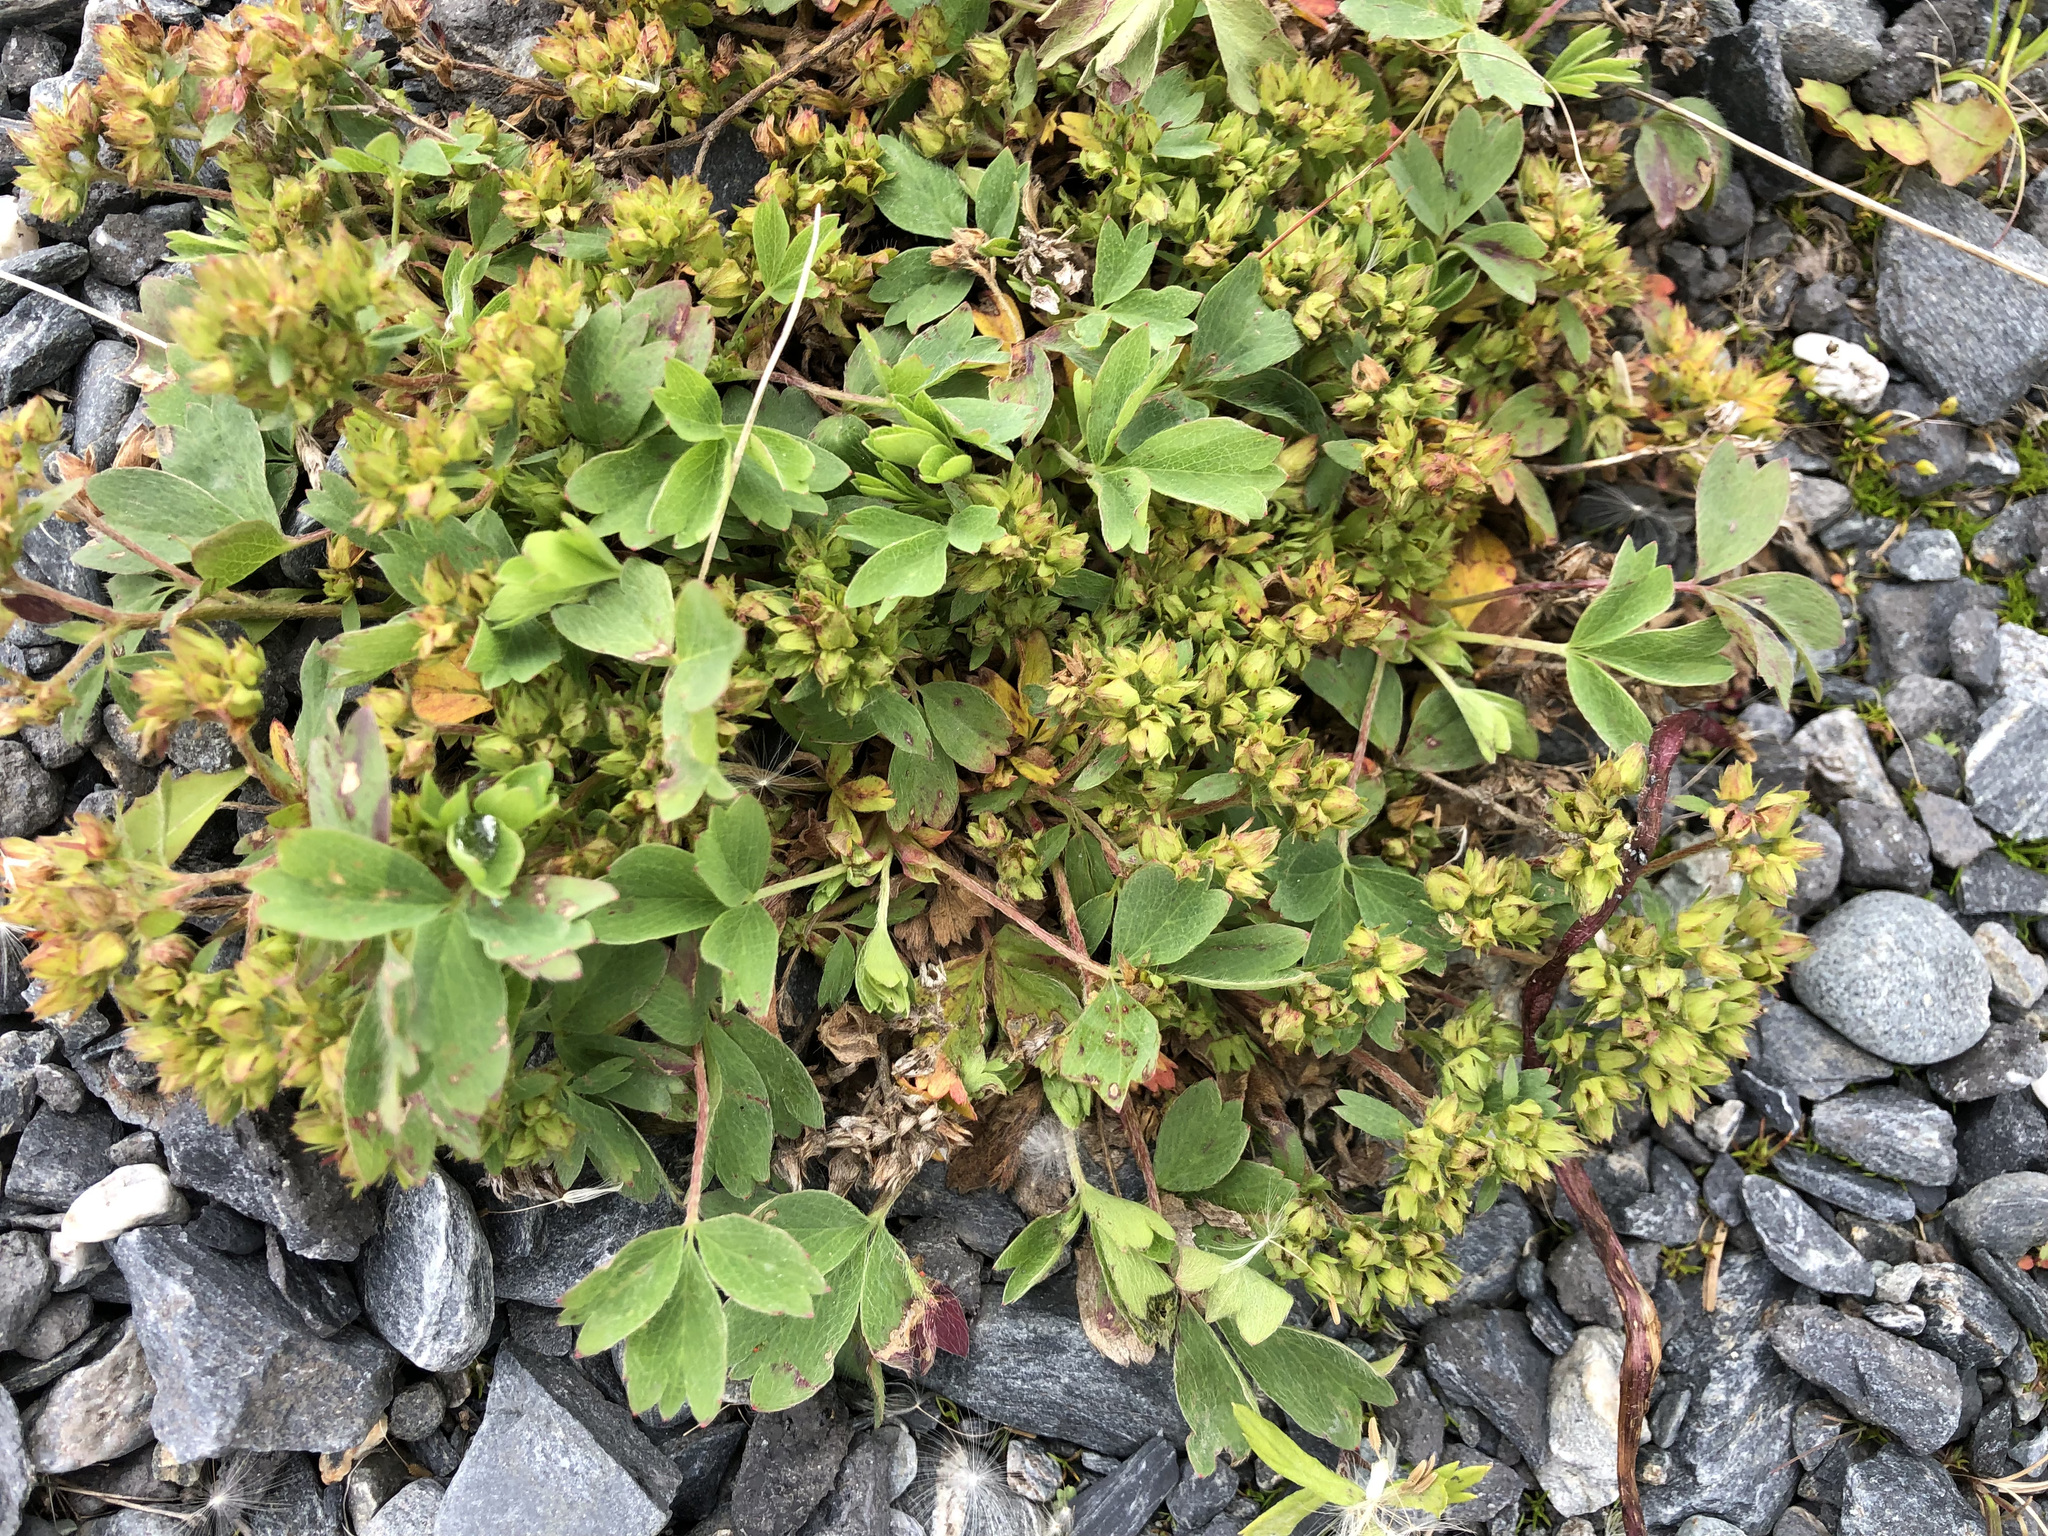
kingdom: Plantae
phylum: Tracheophyta
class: Magnoliopsida
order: Rosales
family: Rosaceae
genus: Sibbaldia
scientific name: Sibbaldia procumbens
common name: Creeping sibbaldia
